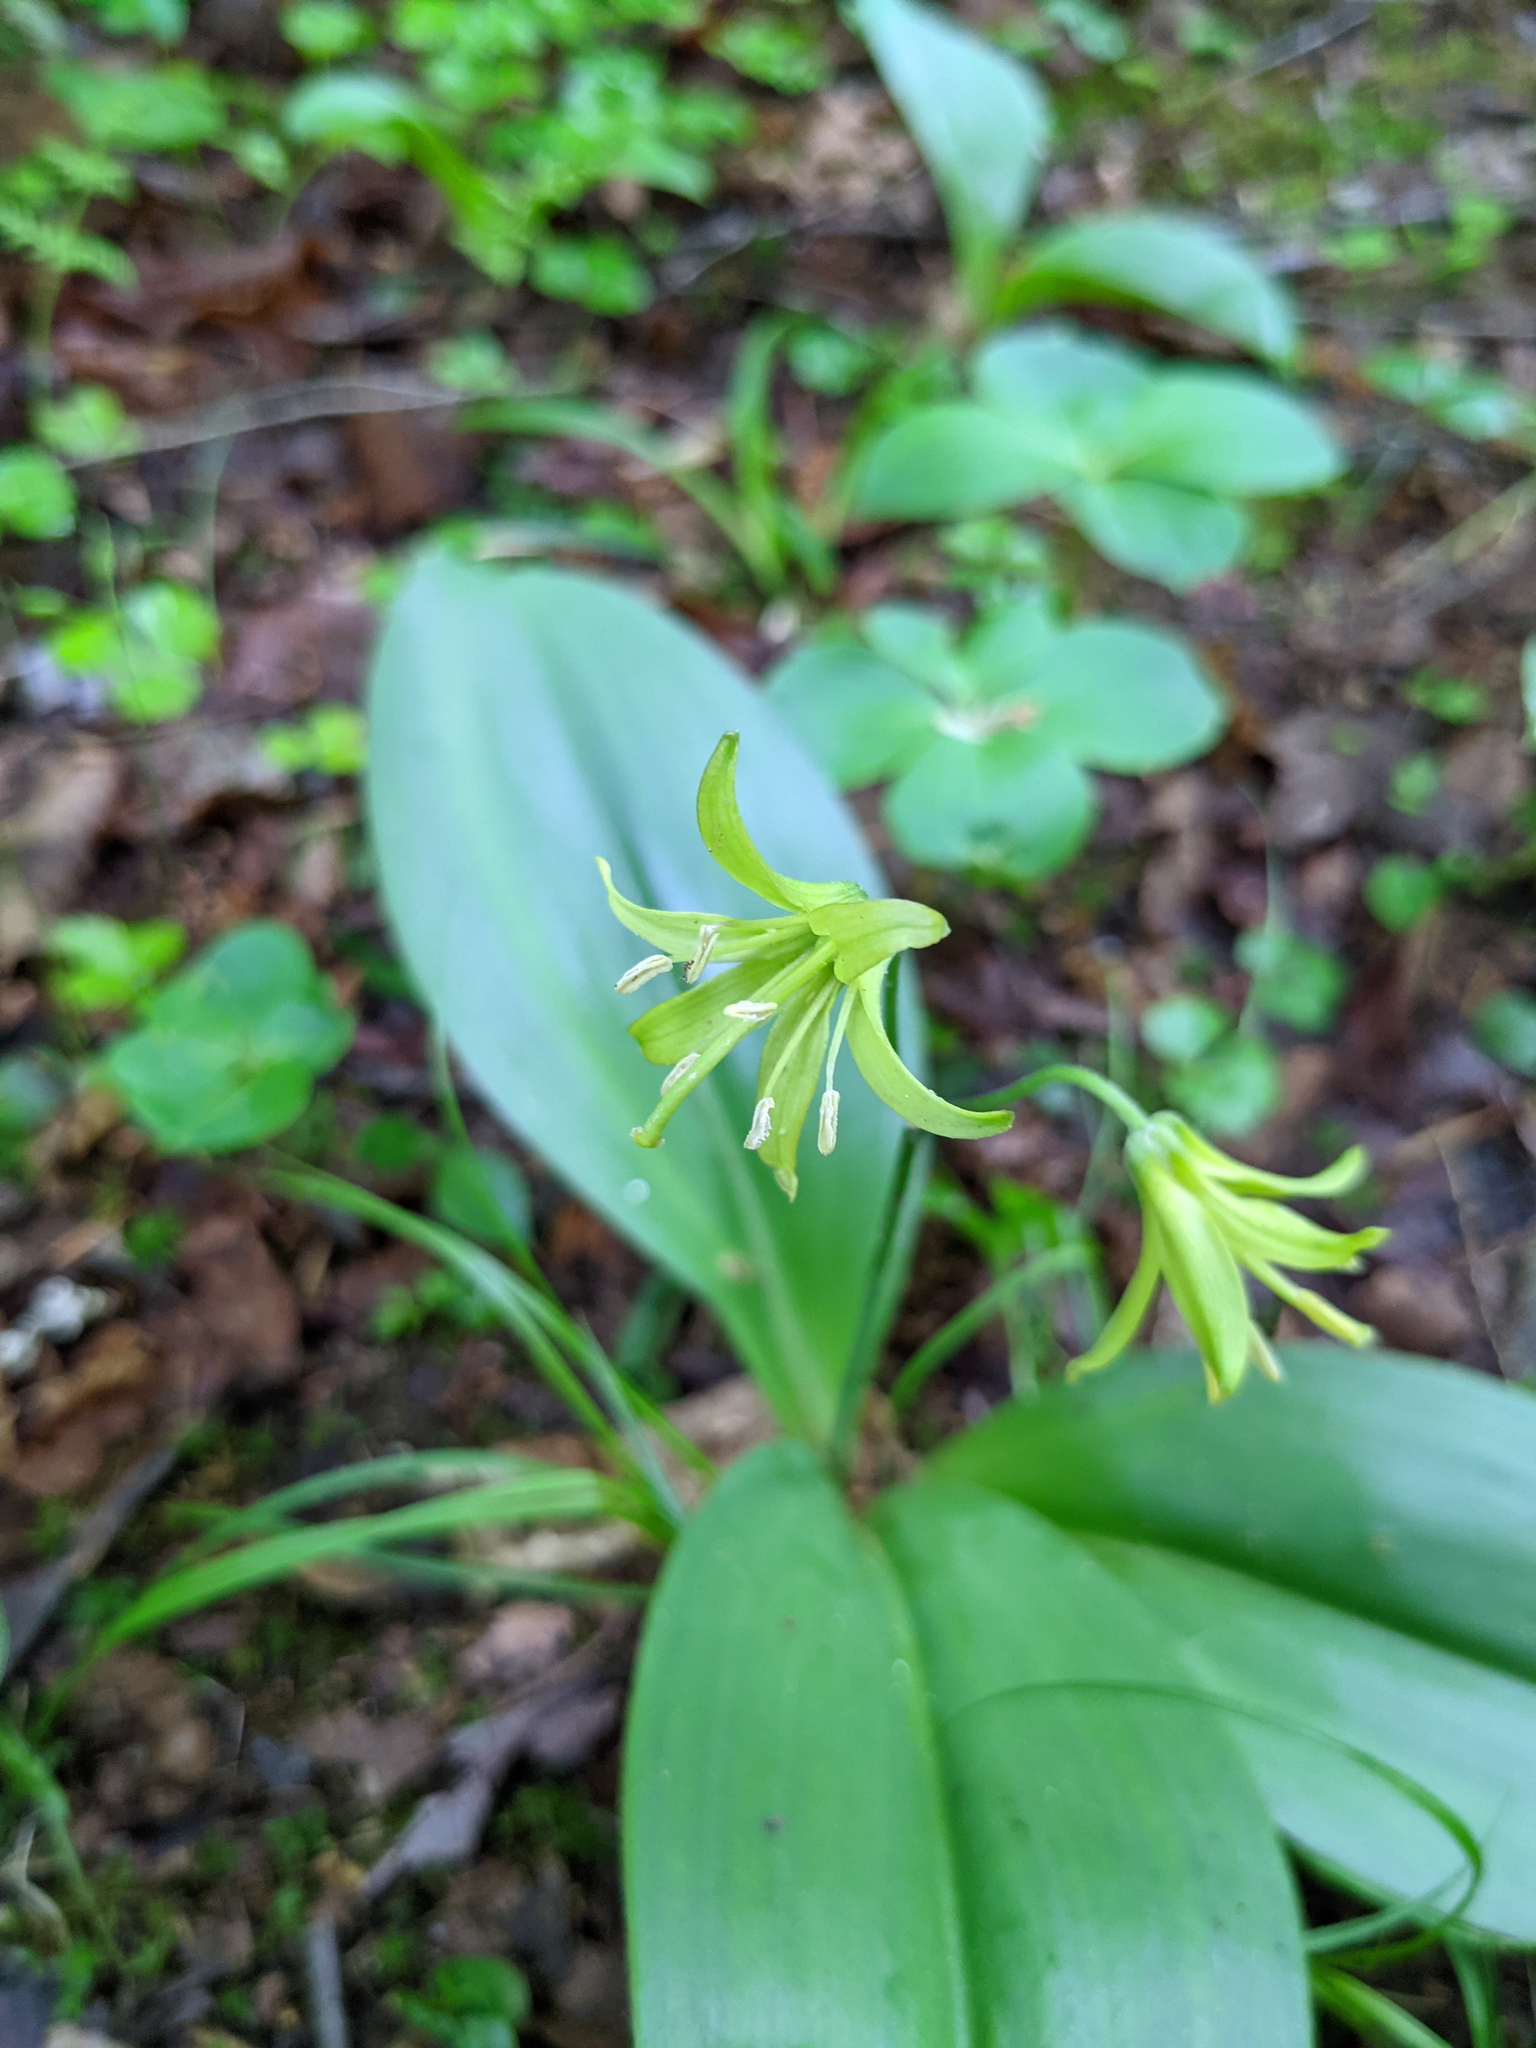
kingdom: Plantae
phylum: Tracheophyta
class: Liliopsida
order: Liliales
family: Liliaceae
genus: Clintonia
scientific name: Clintonia borealis
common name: Yellow clintonia
